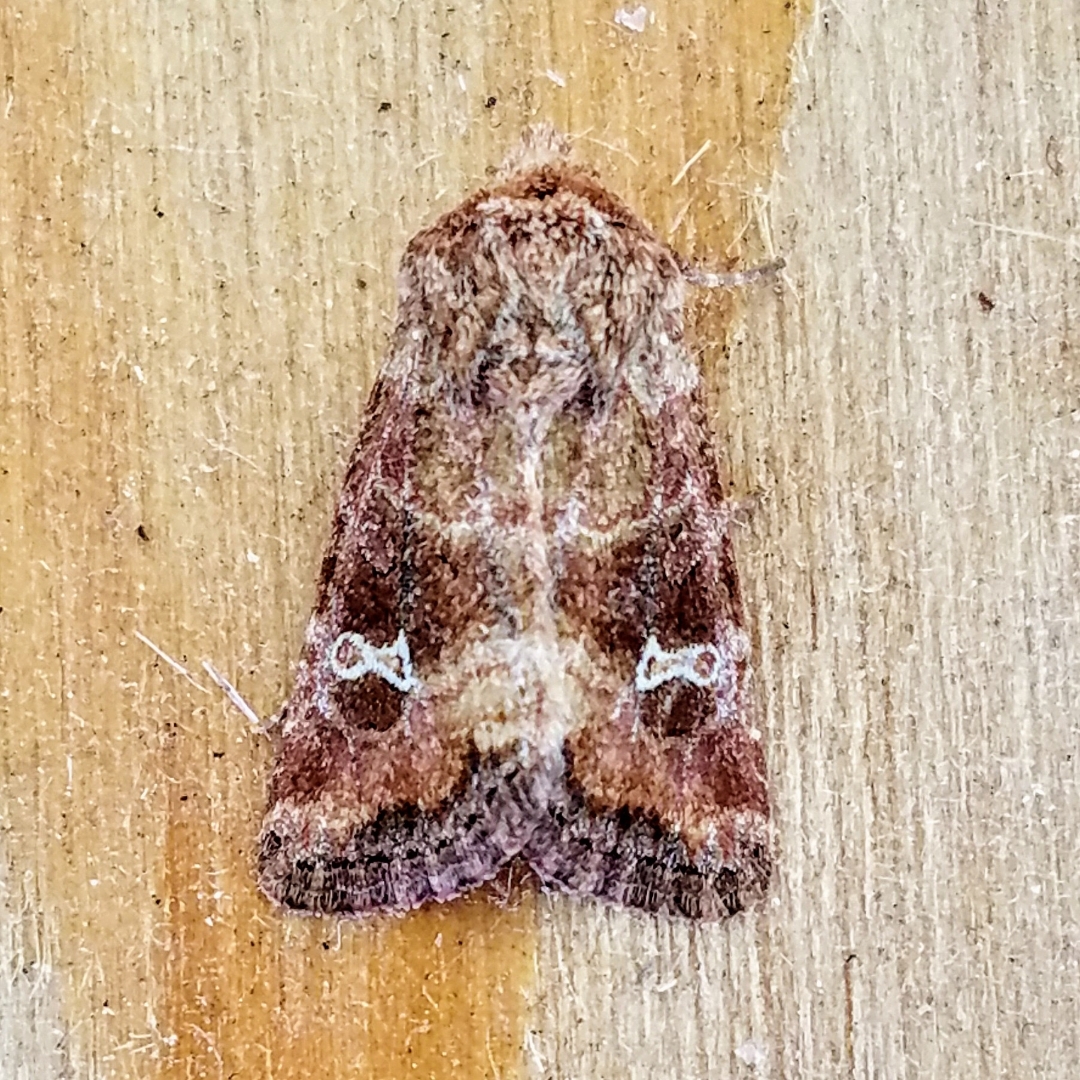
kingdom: Animalia
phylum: Arthropoda
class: Insecta
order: Lepidoptera
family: Noctuidae
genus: Lacinipolia
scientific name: Lacinipolia stricta
